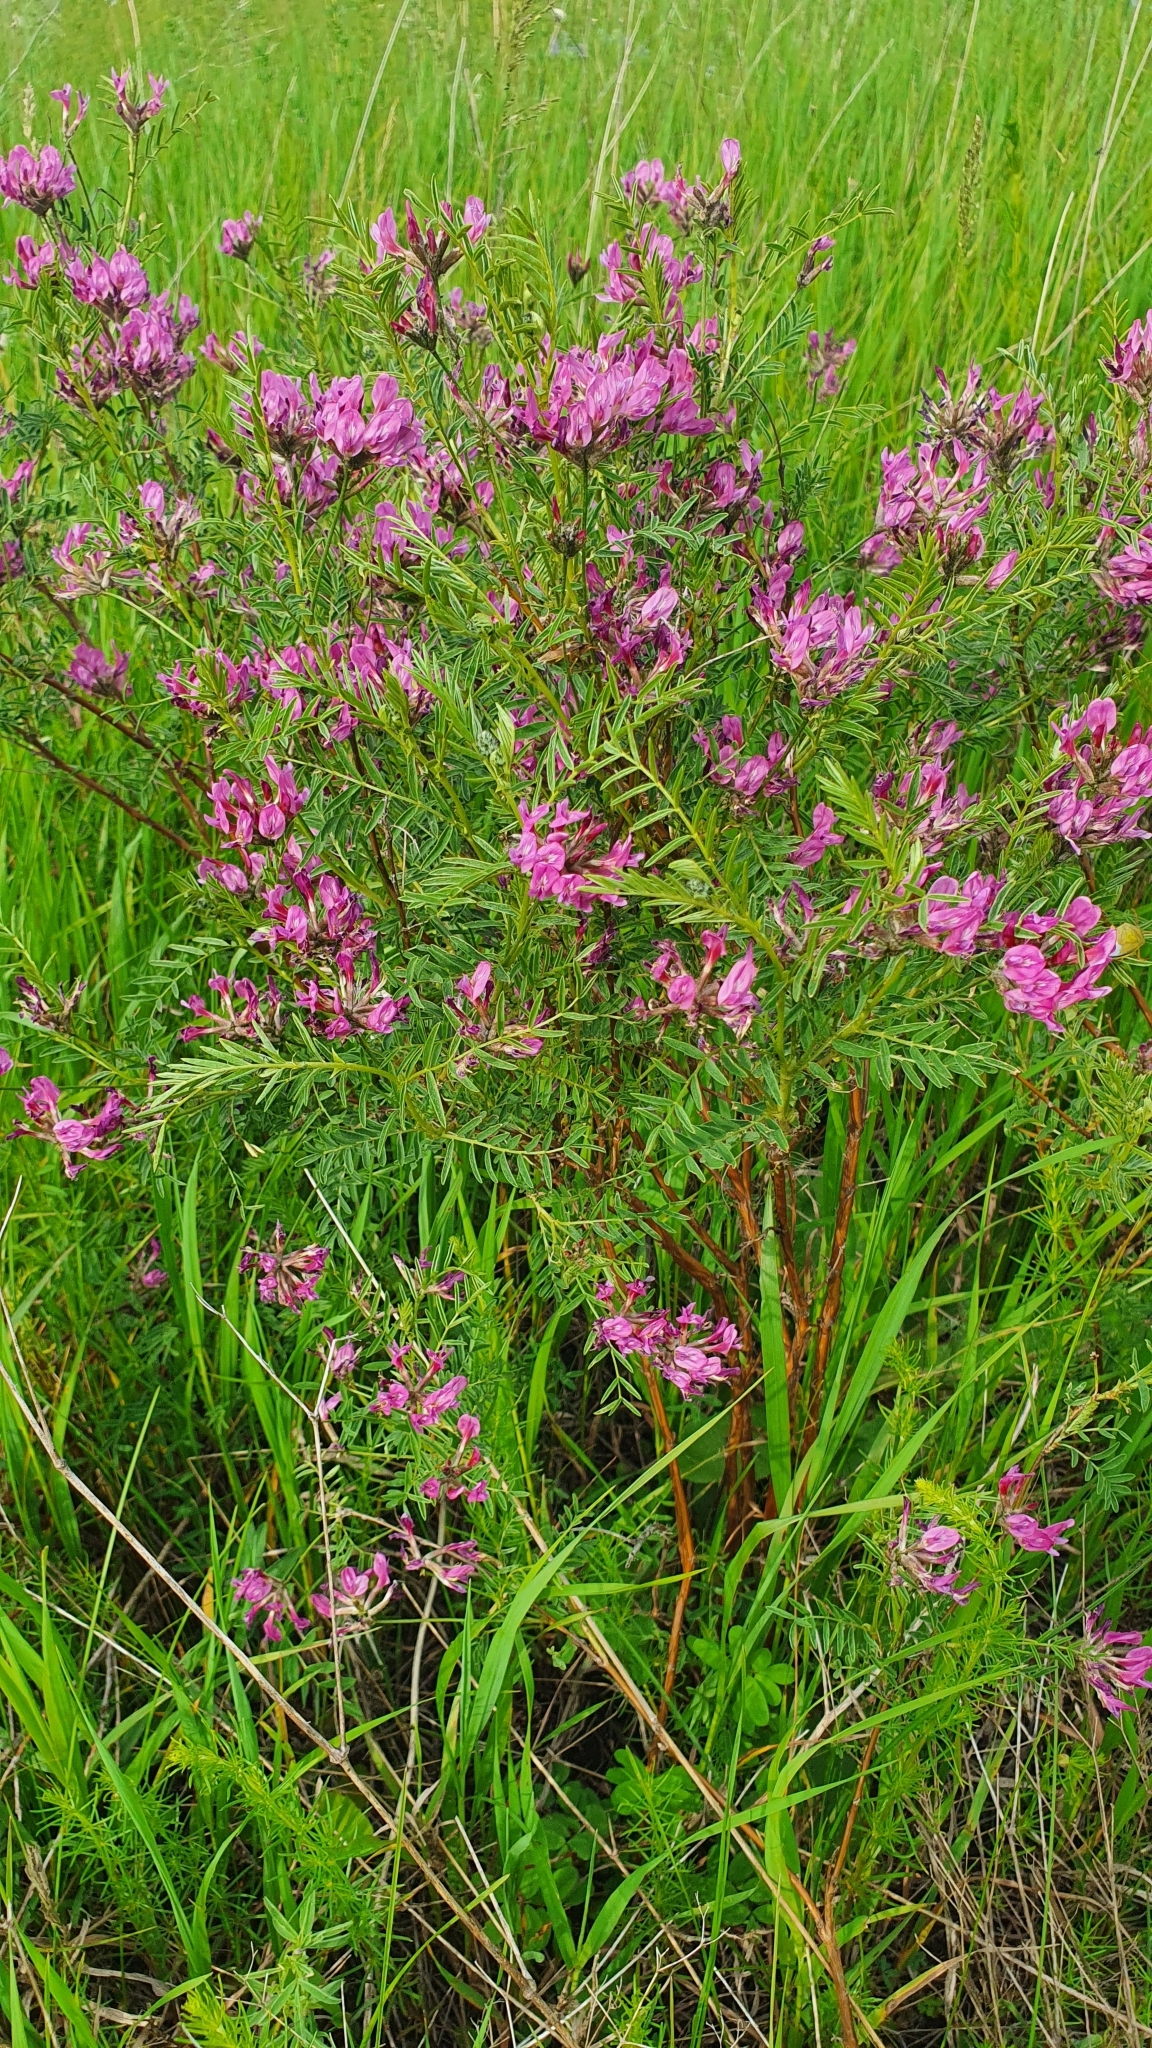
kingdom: Plantae
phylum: Tracheophyta
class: Magnoliopsida
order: Fabales
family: Fabaceae
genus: Astragalus
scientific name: Astragalus cornutus
